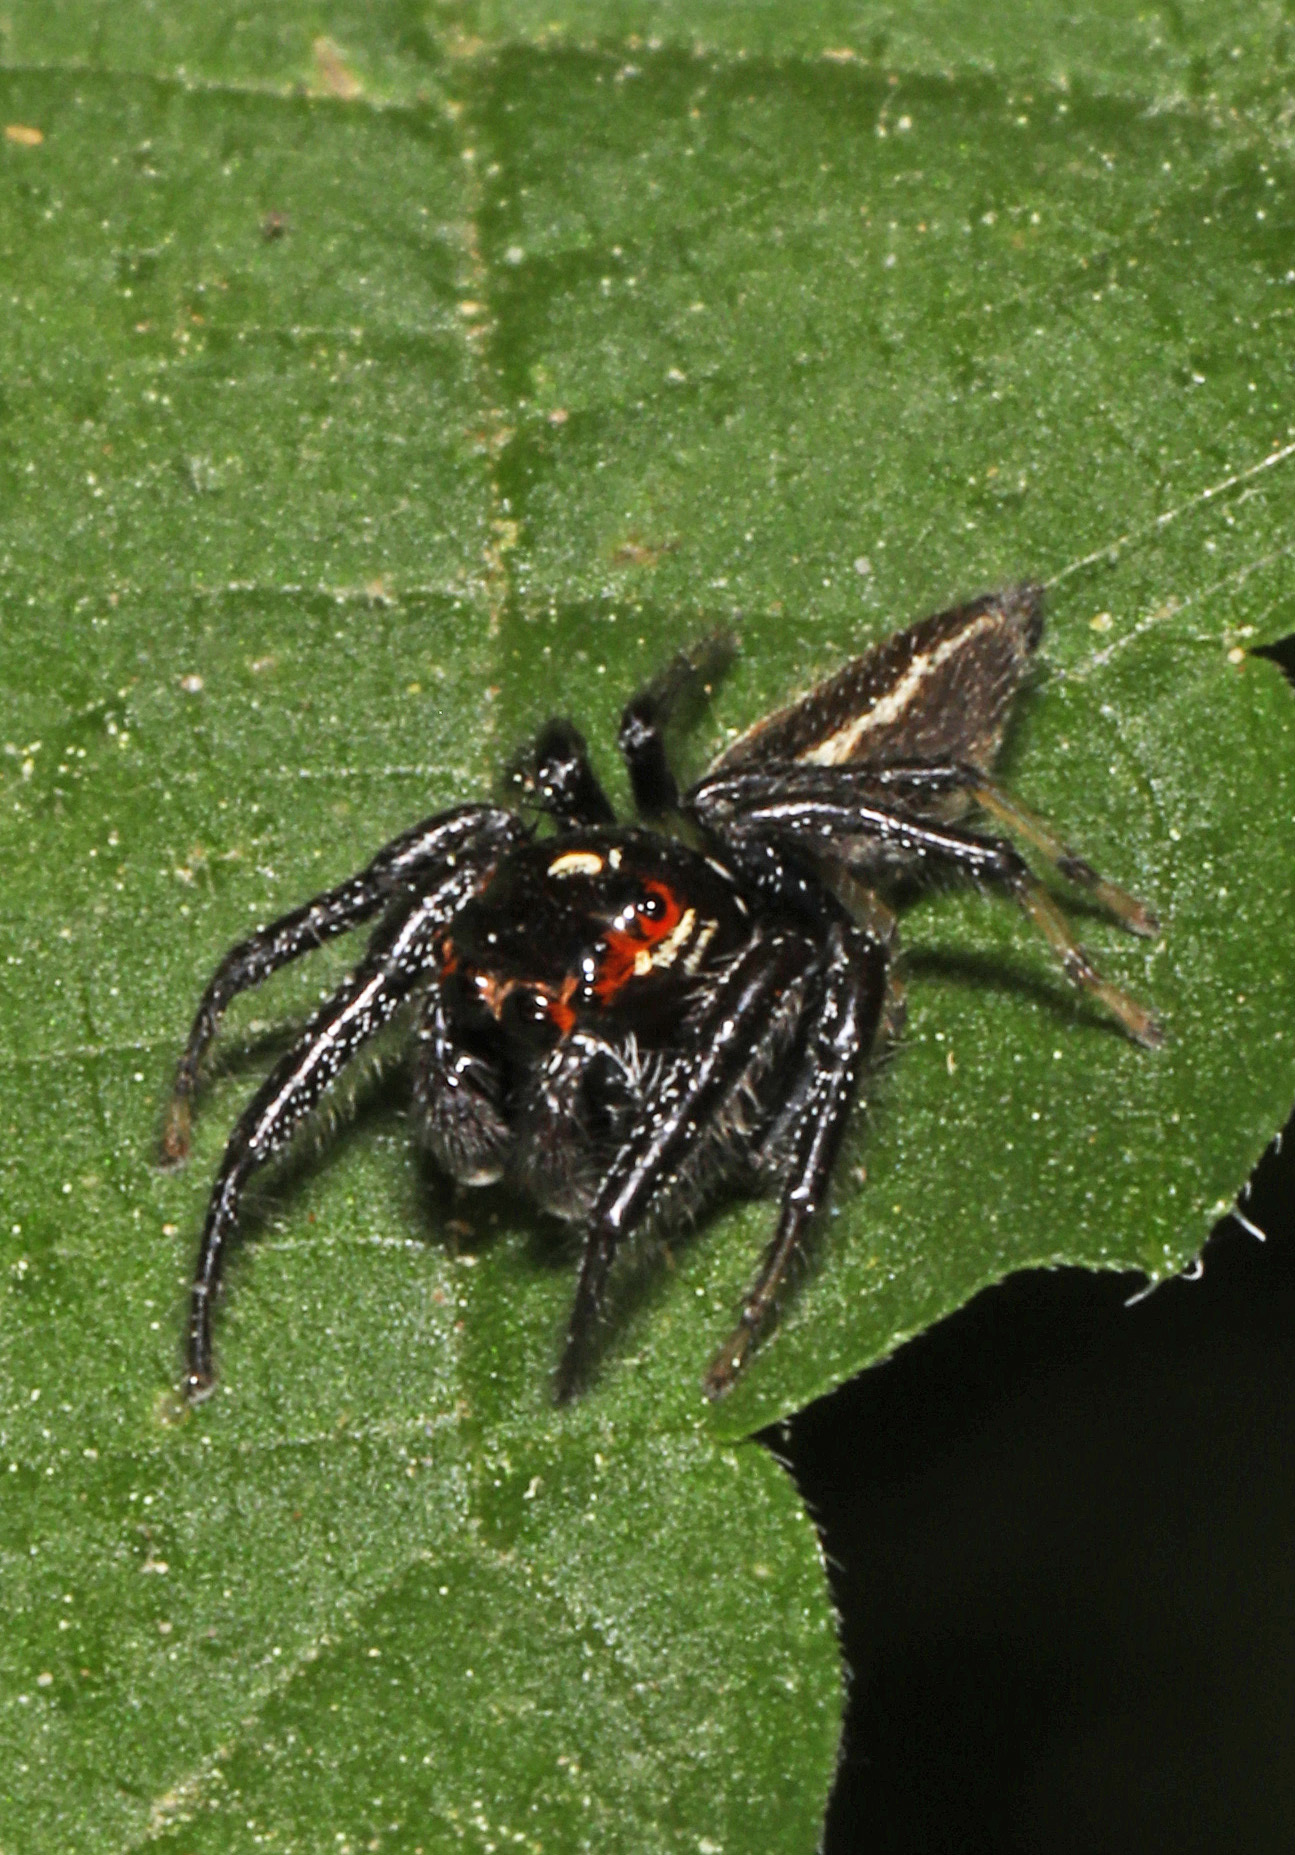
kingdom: Animalia
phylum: Arthropoda
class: Arachnida
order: Araneae
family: Salticidae
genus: Colonus
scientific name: Colonus sylvanus
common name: Jumping spiders
